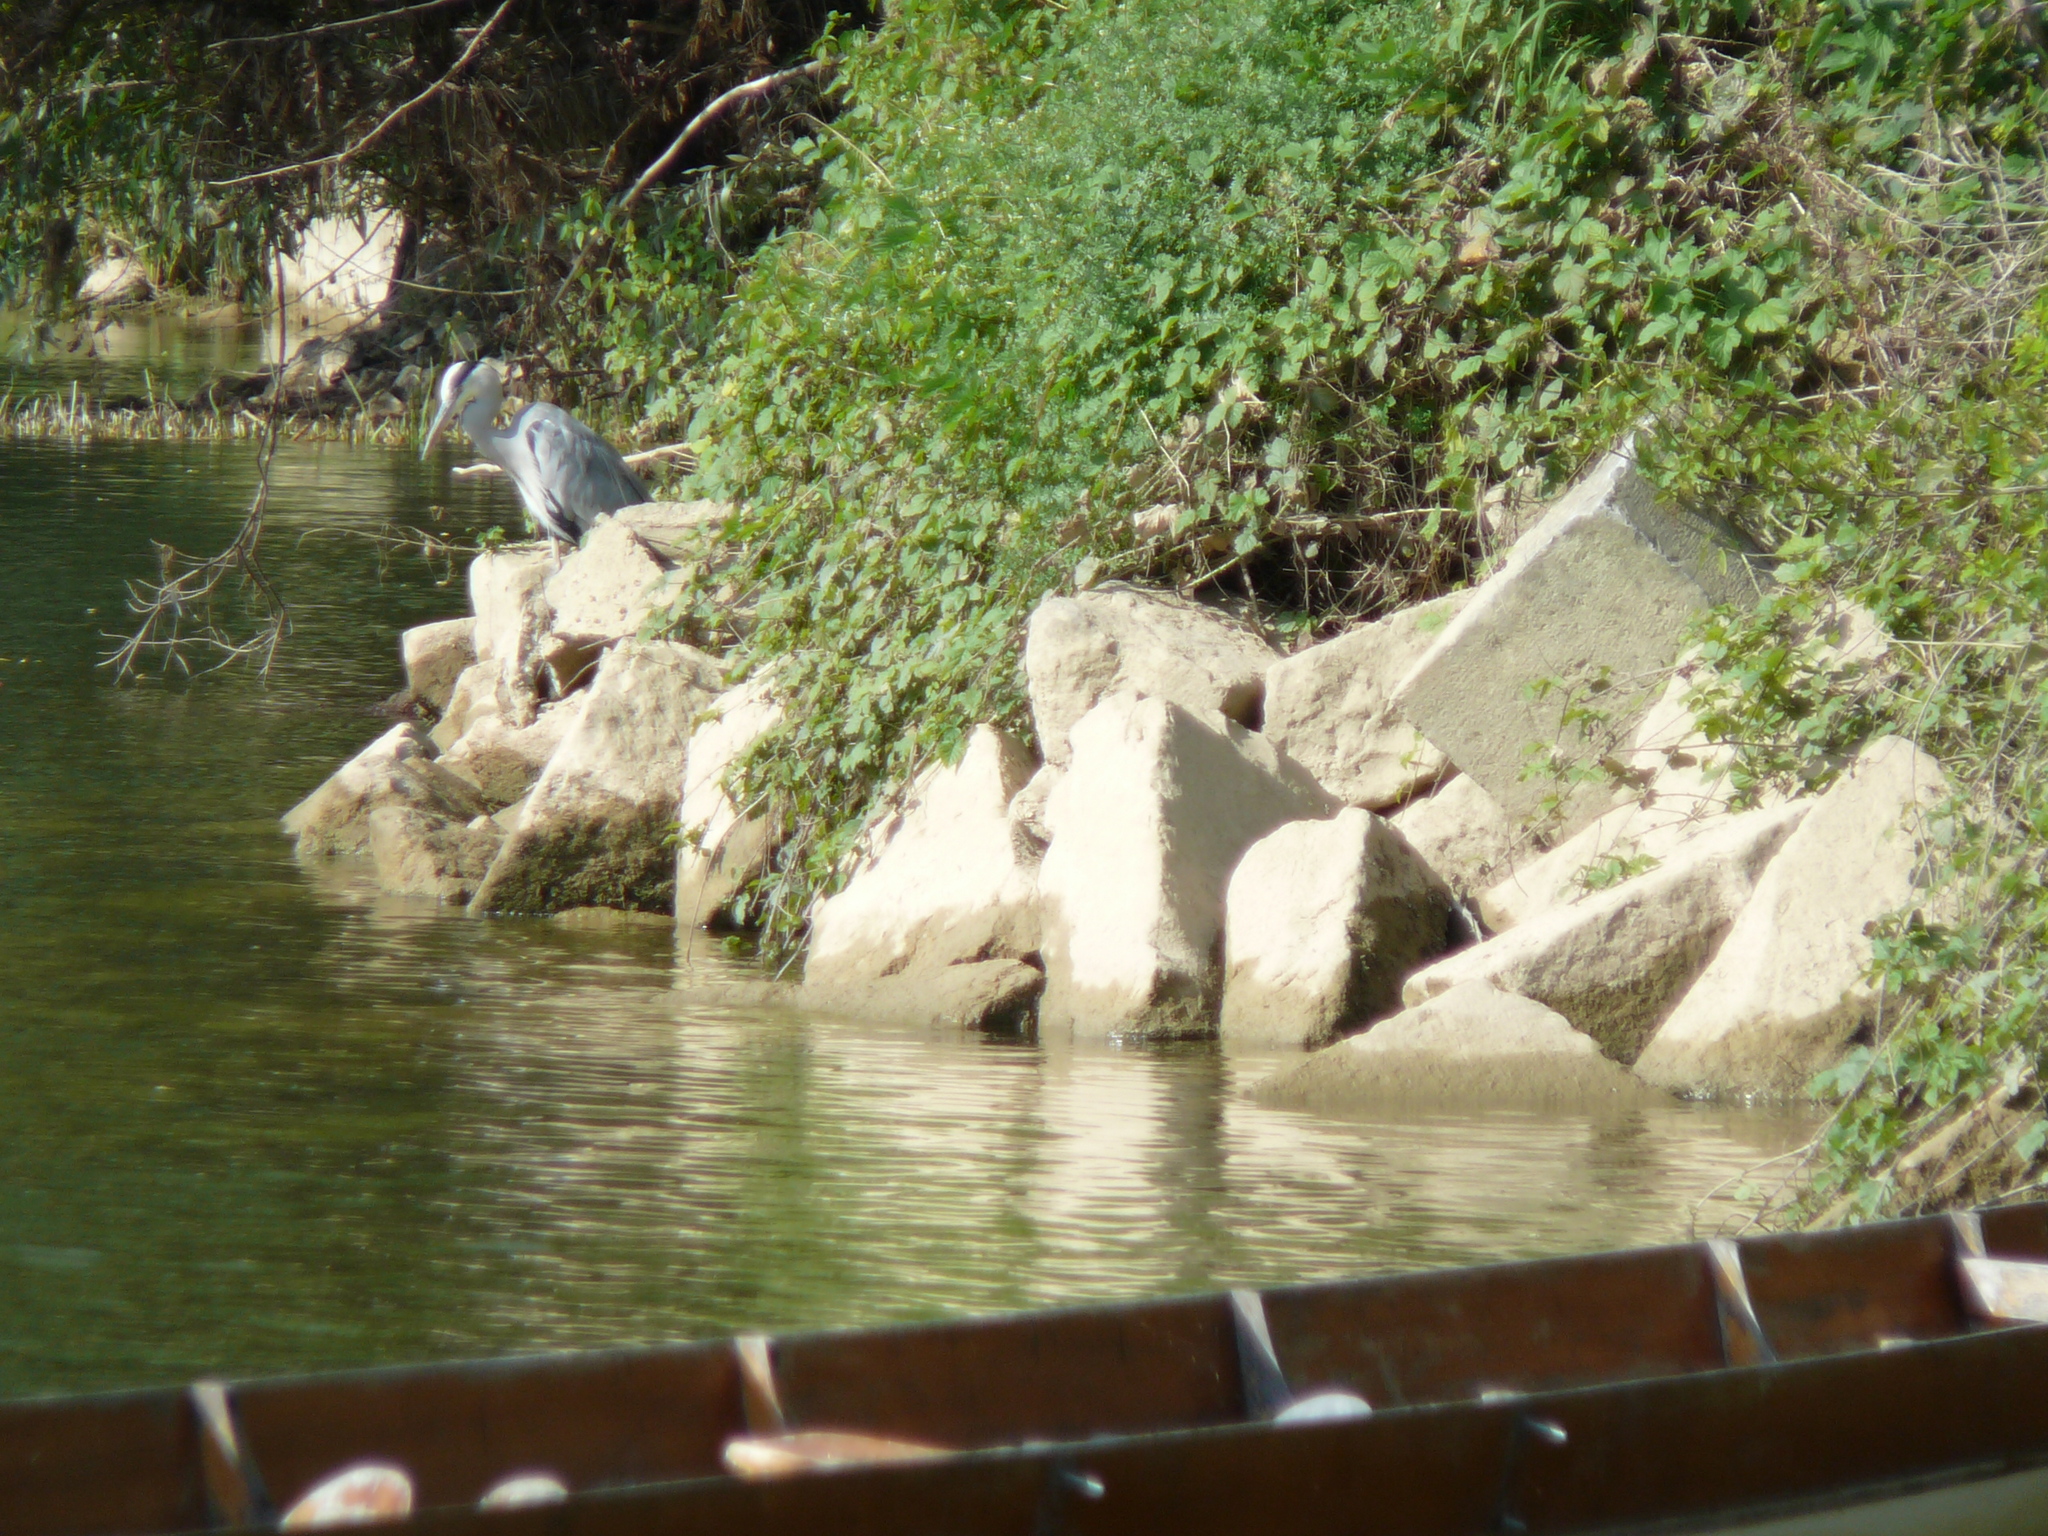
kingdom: Animalia
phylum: Chordata
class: Aves
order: Pelecaniformes
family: Ardeidae
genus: Ardea
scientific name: Ardea cinerea
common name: Grey heron
